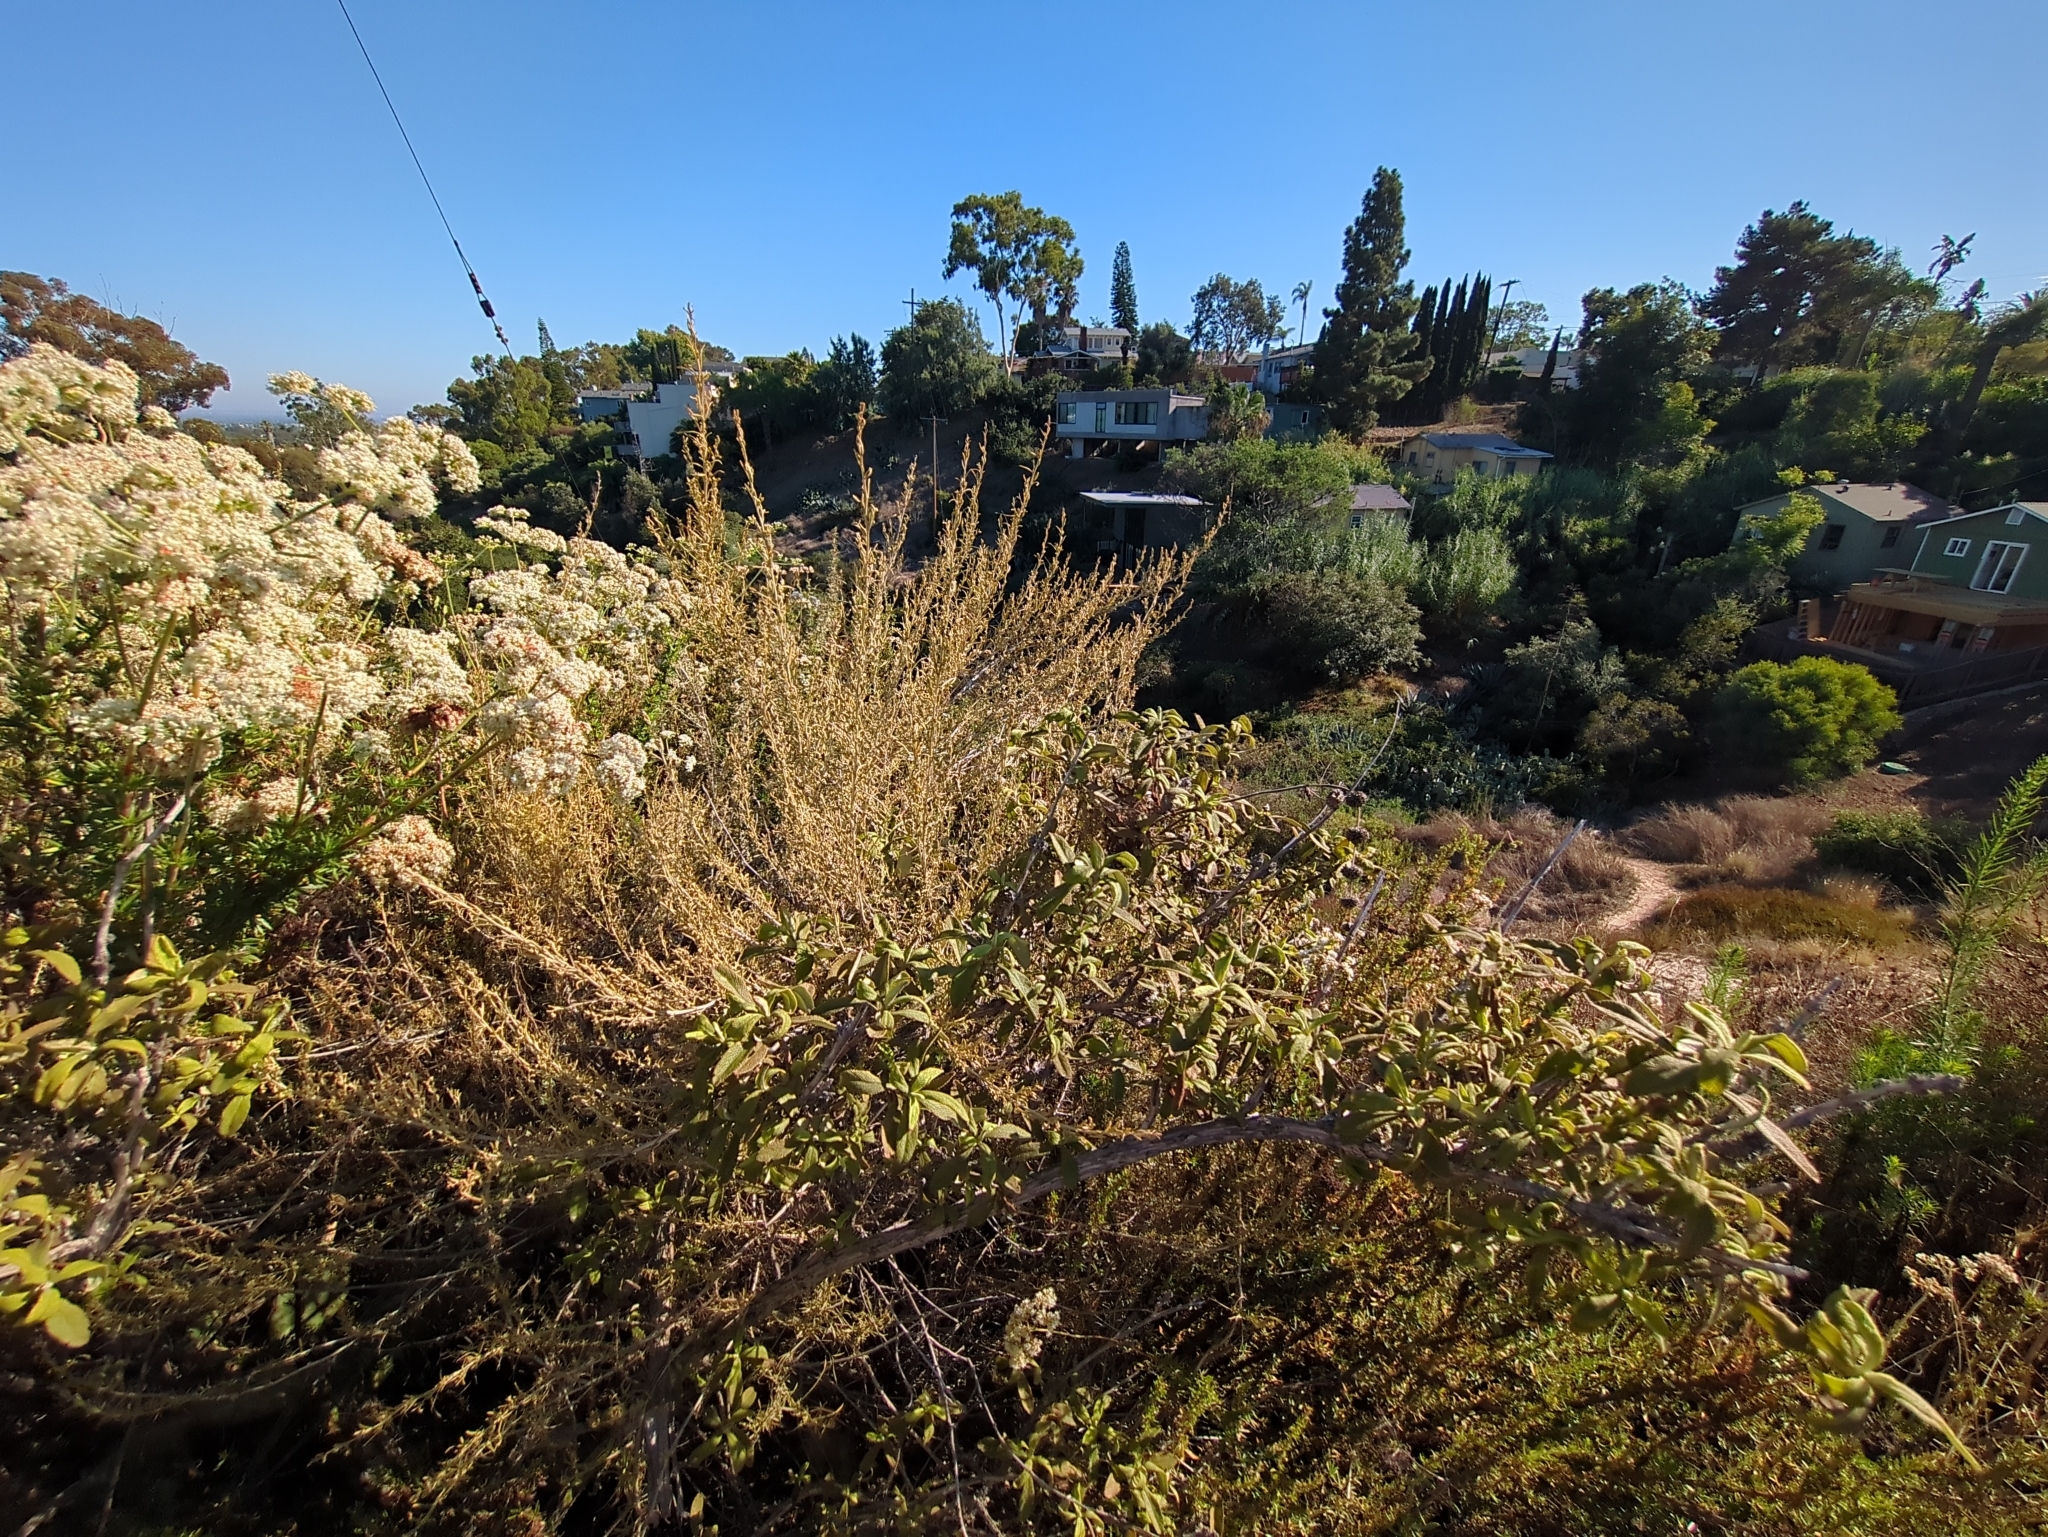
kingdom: Plantae
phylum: Tracheophyta
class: Magnoliopsida
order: Lamiales
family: Lamiaceae
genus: Salvia
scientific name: Salvia mellifera
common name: Black sage
